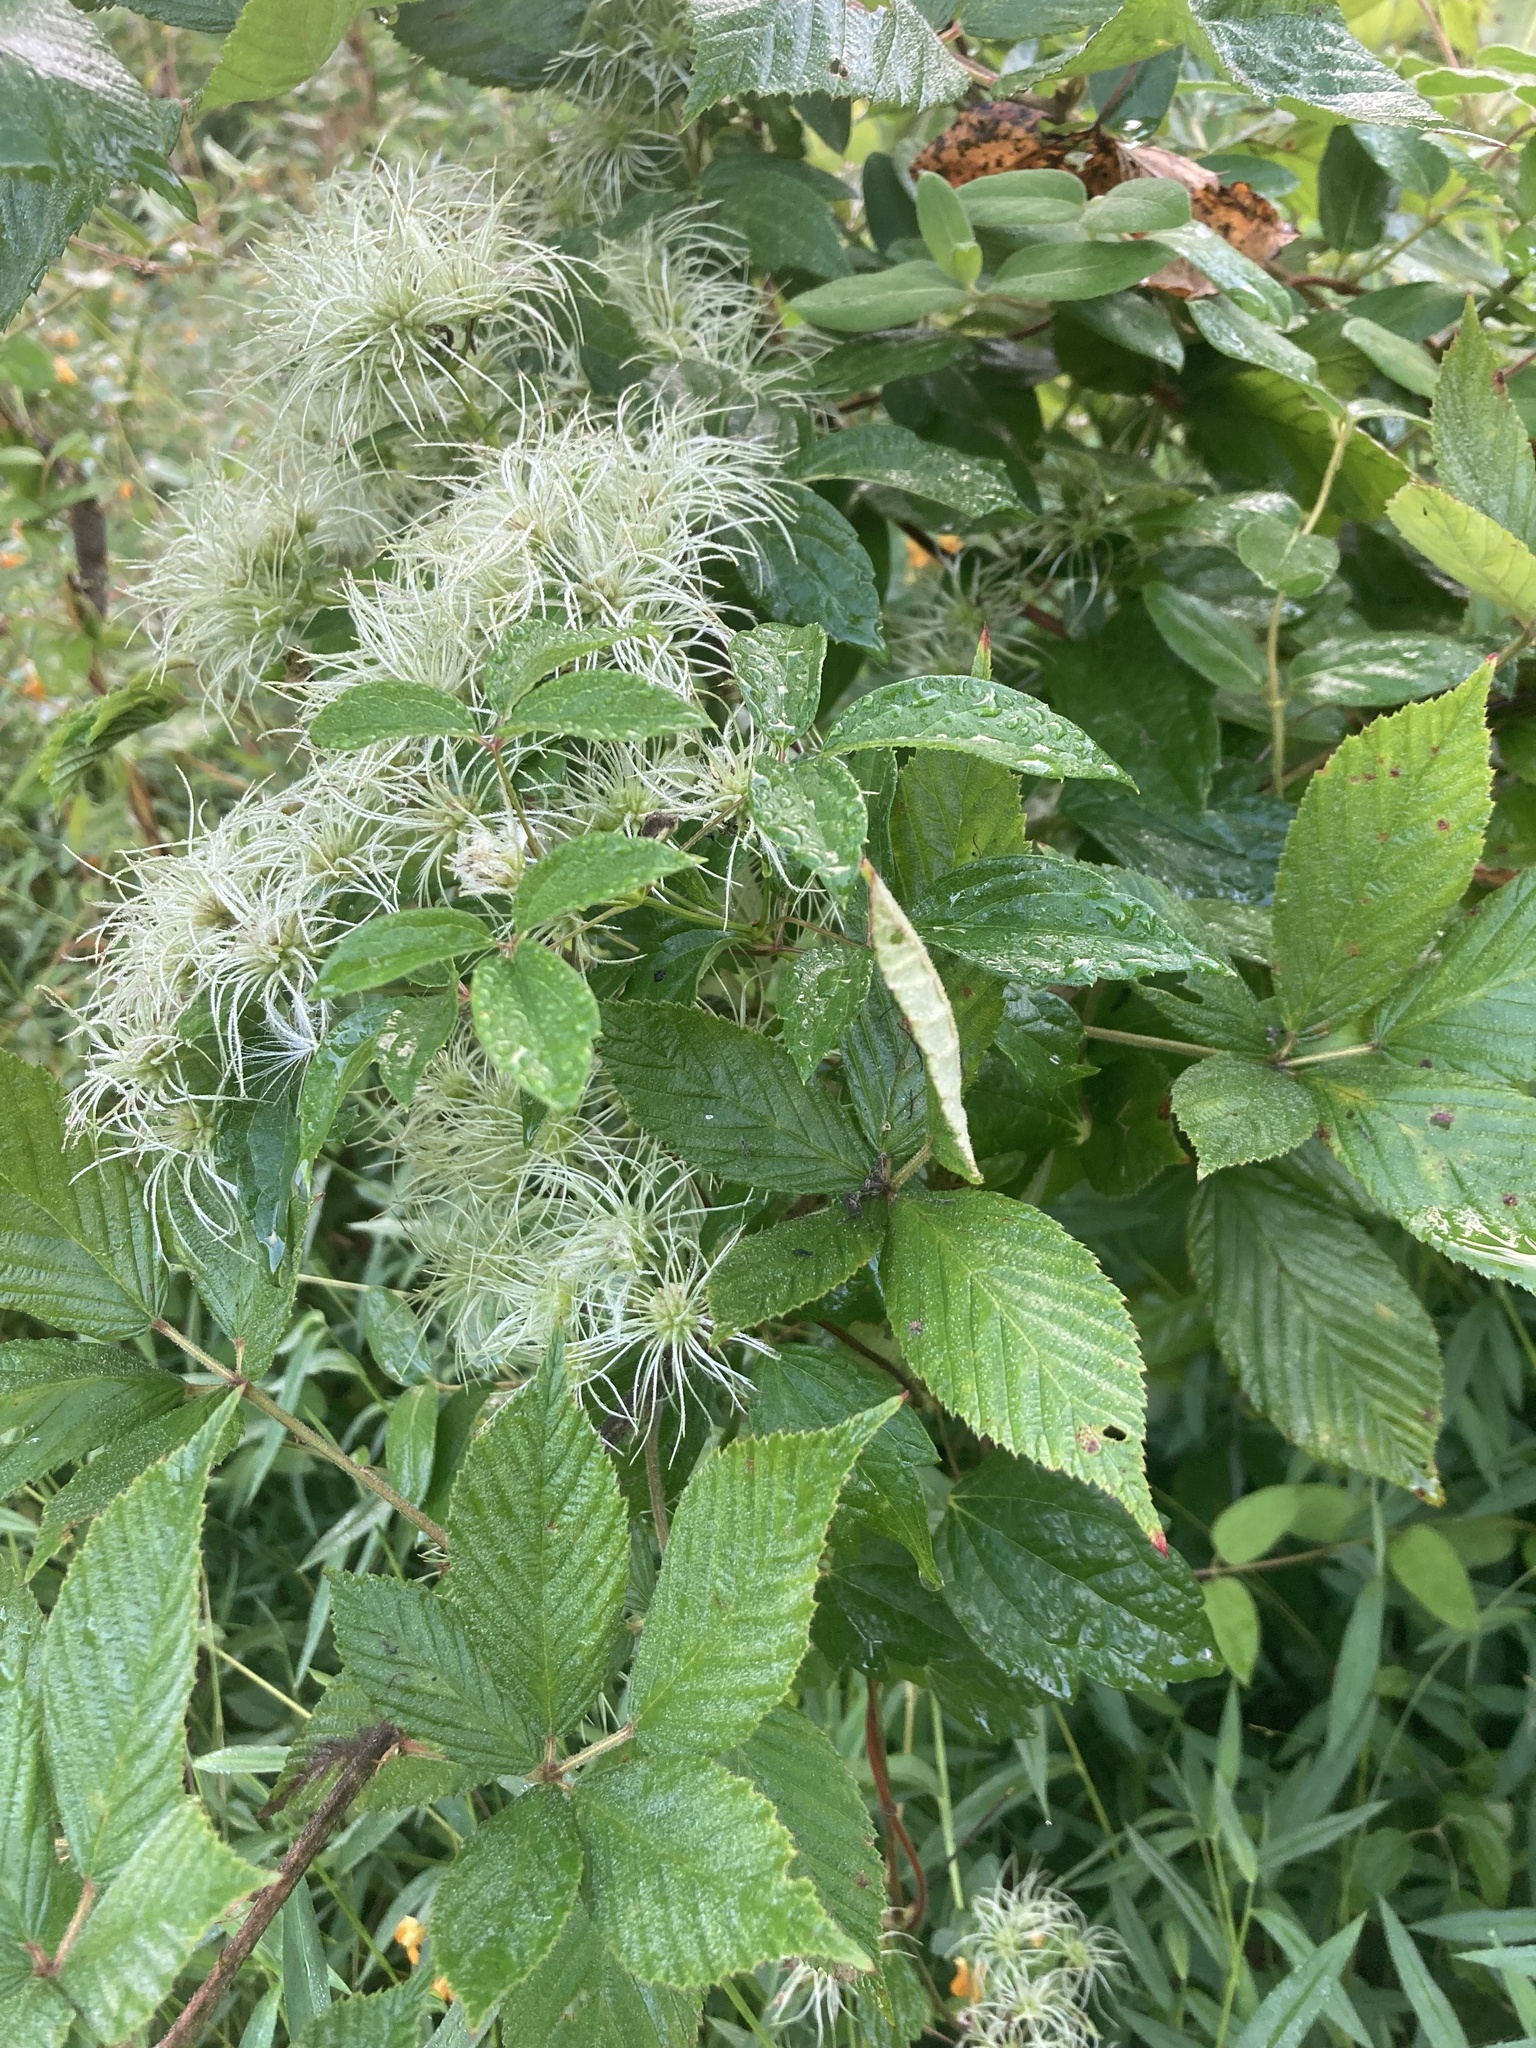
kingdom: Plantae
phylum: Tracheophyta
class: Magnoliopsida
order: Ranunculales
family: Ranunculaceae
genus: Clematis
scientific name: Clematis virginiana
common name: Virgin's-bower
